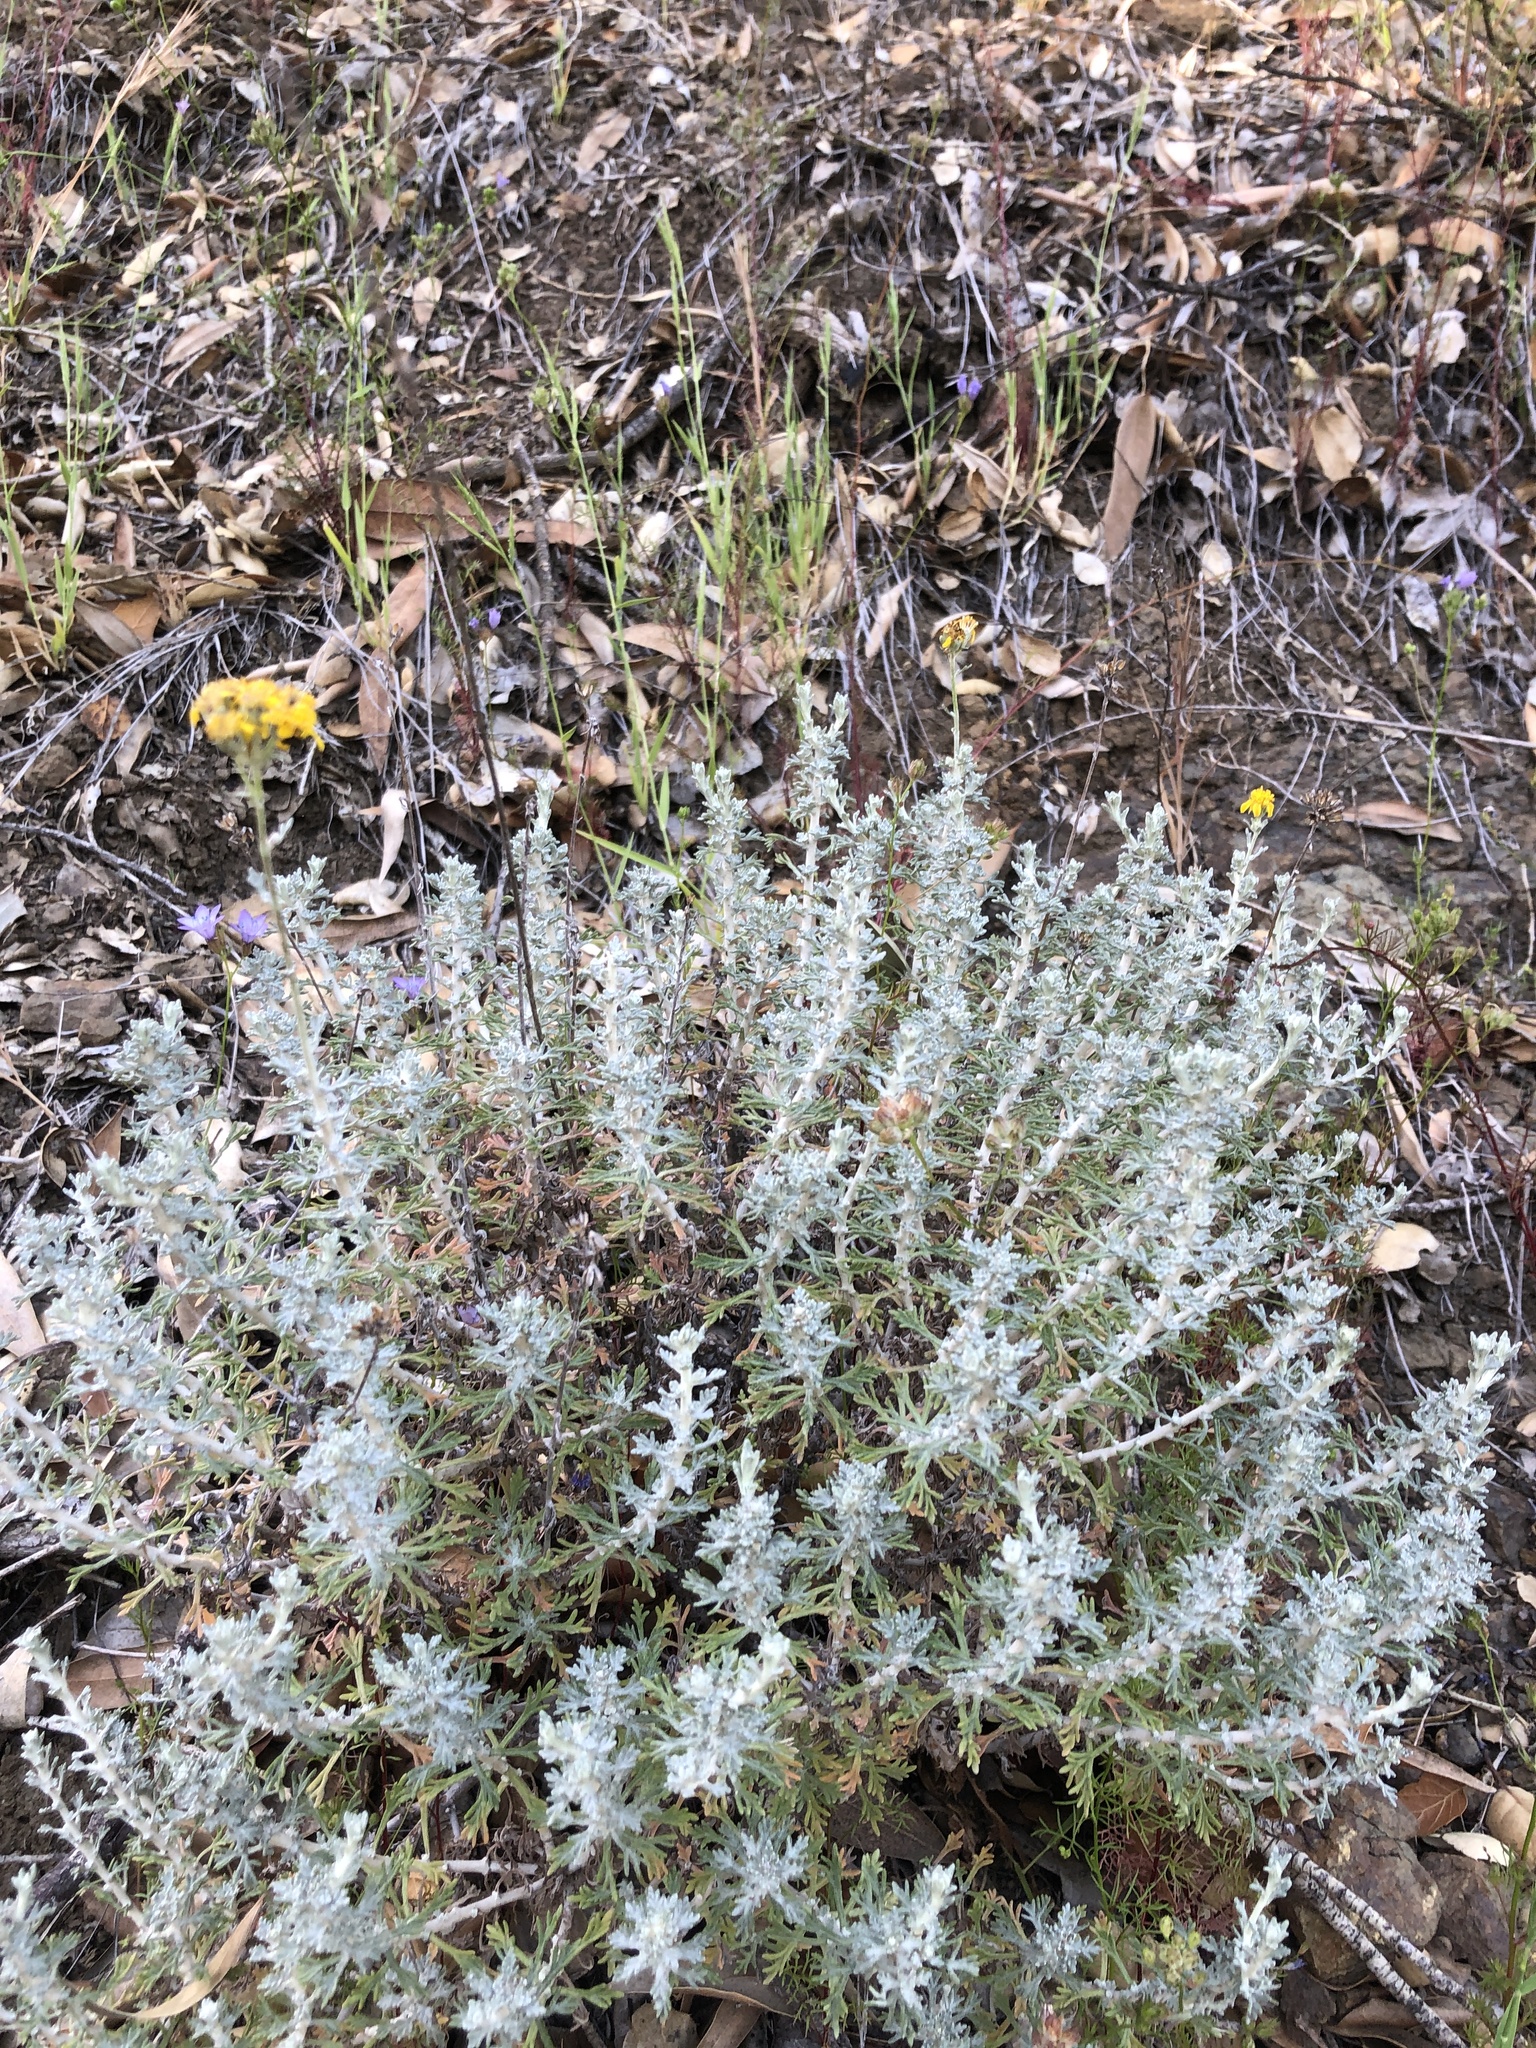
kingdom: Plantae
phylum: Tracheophyta
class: Magnoliopsida
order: Asterales
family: Asteraceae
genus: Eriophyllum
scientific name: Eriophyllum confertiflorum
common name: Golden-yarrow
